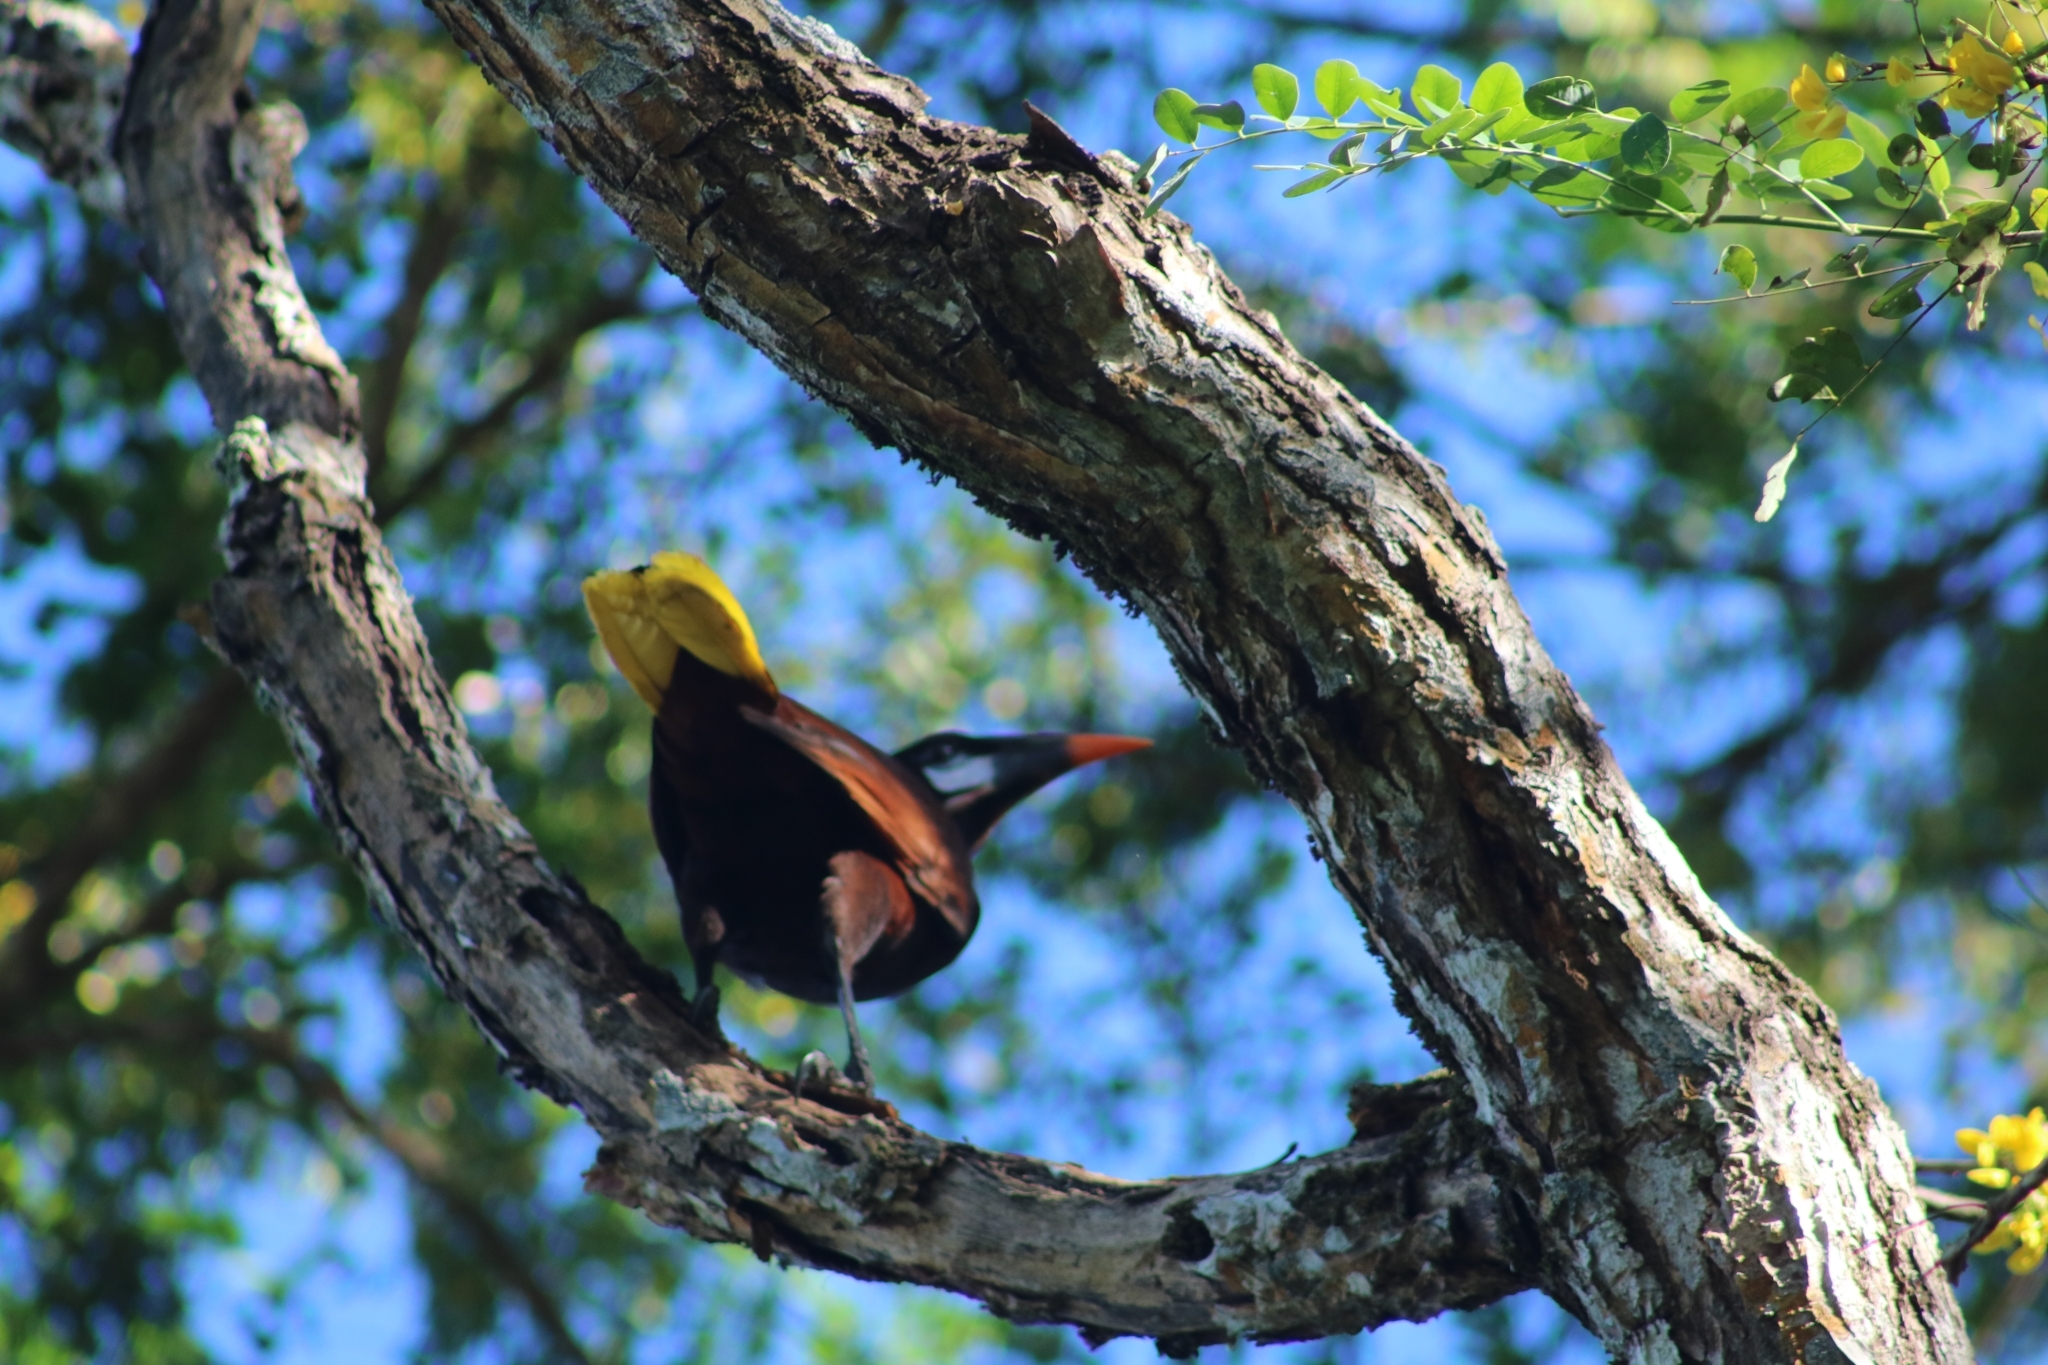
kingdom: Animalia
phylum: Chordata
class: Aves
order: Passeriformes
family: Icteridae
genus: Psarocolius
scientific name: Psarocolius montezuma
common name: Montezuma oropendola
